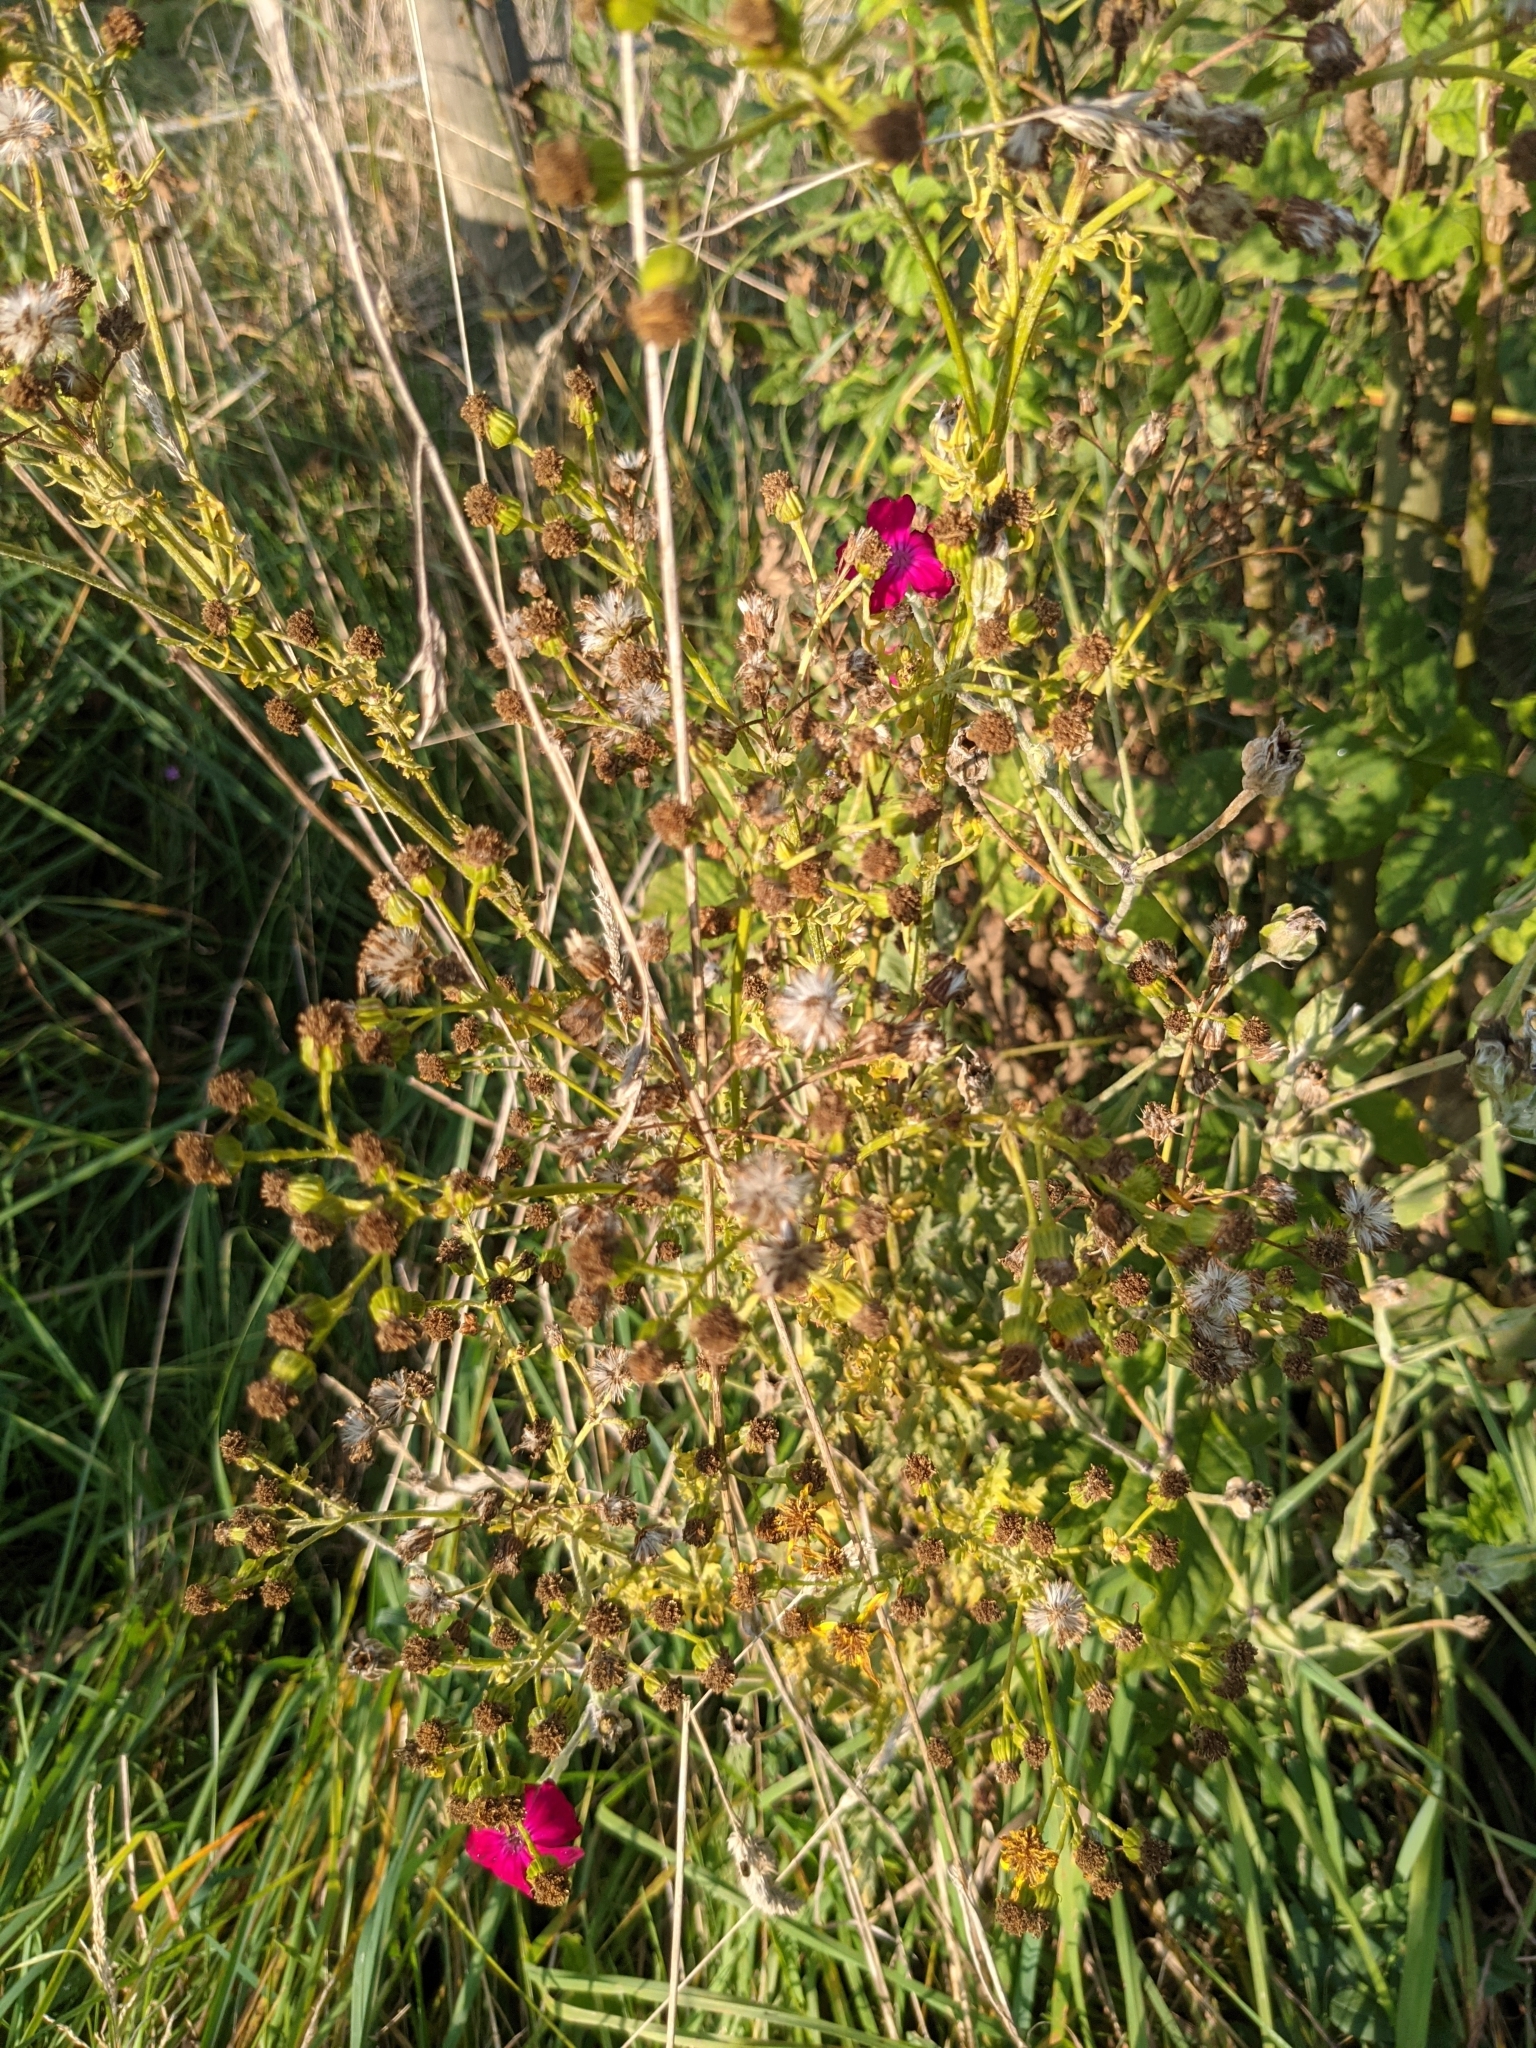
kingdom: Plantae
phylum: Tracheophyta
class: Magnoliopsida
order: Caryophyllales
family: Caryophyllaceae
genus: Silene
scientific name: Silene coronaria
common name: Rose campion
